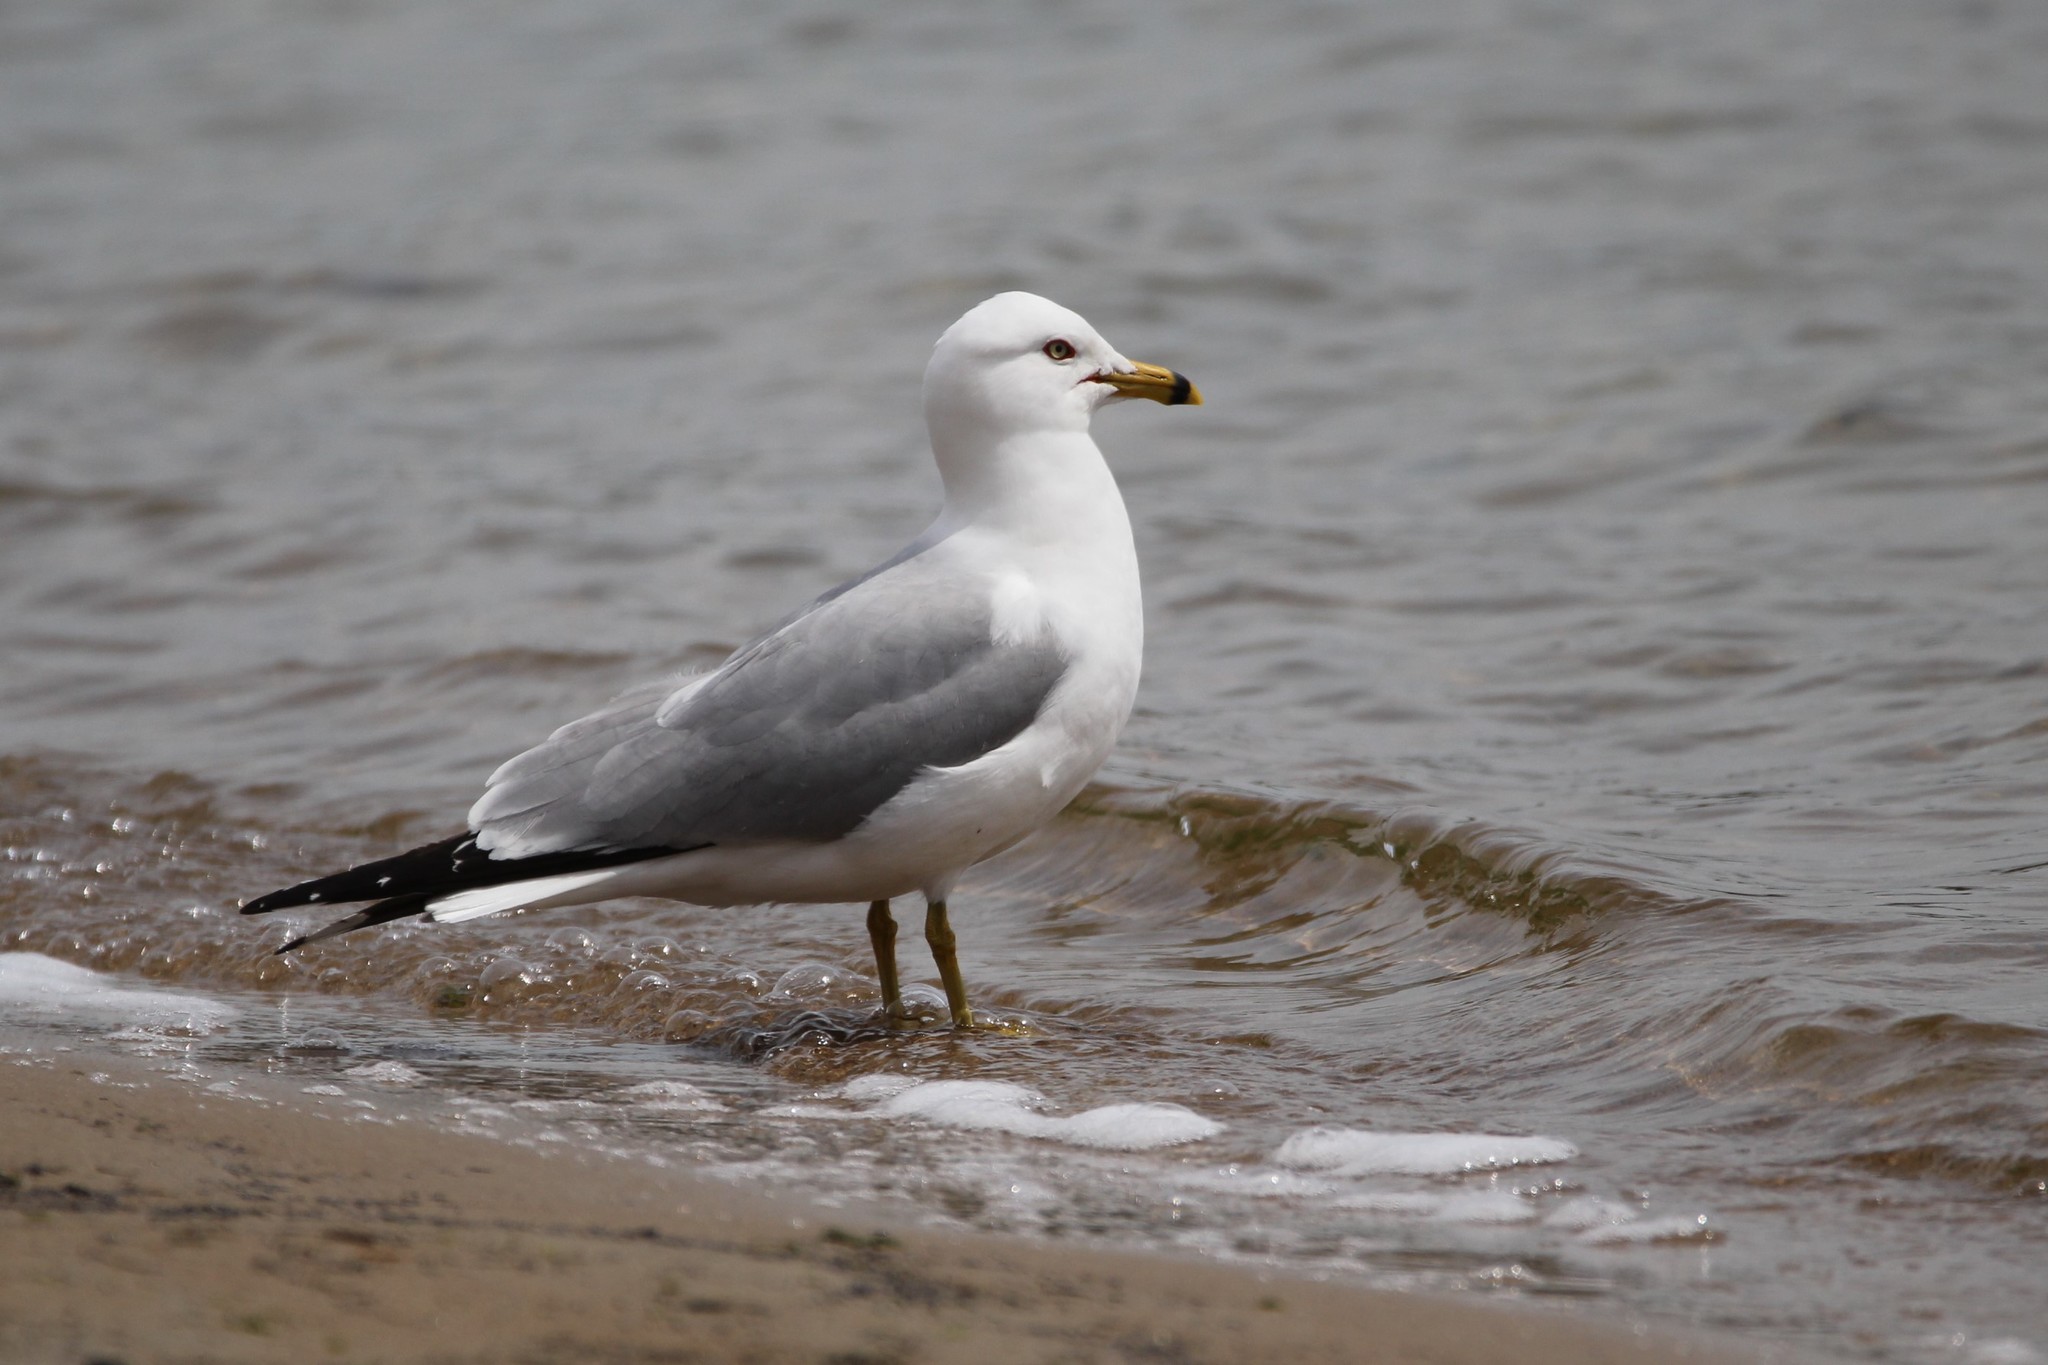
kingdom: Animalia
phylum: Chordata
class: Aves
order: Charadriiformes
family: Laridae
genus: Larus
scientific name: Larus delawarensis
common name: Ring-billed gull
